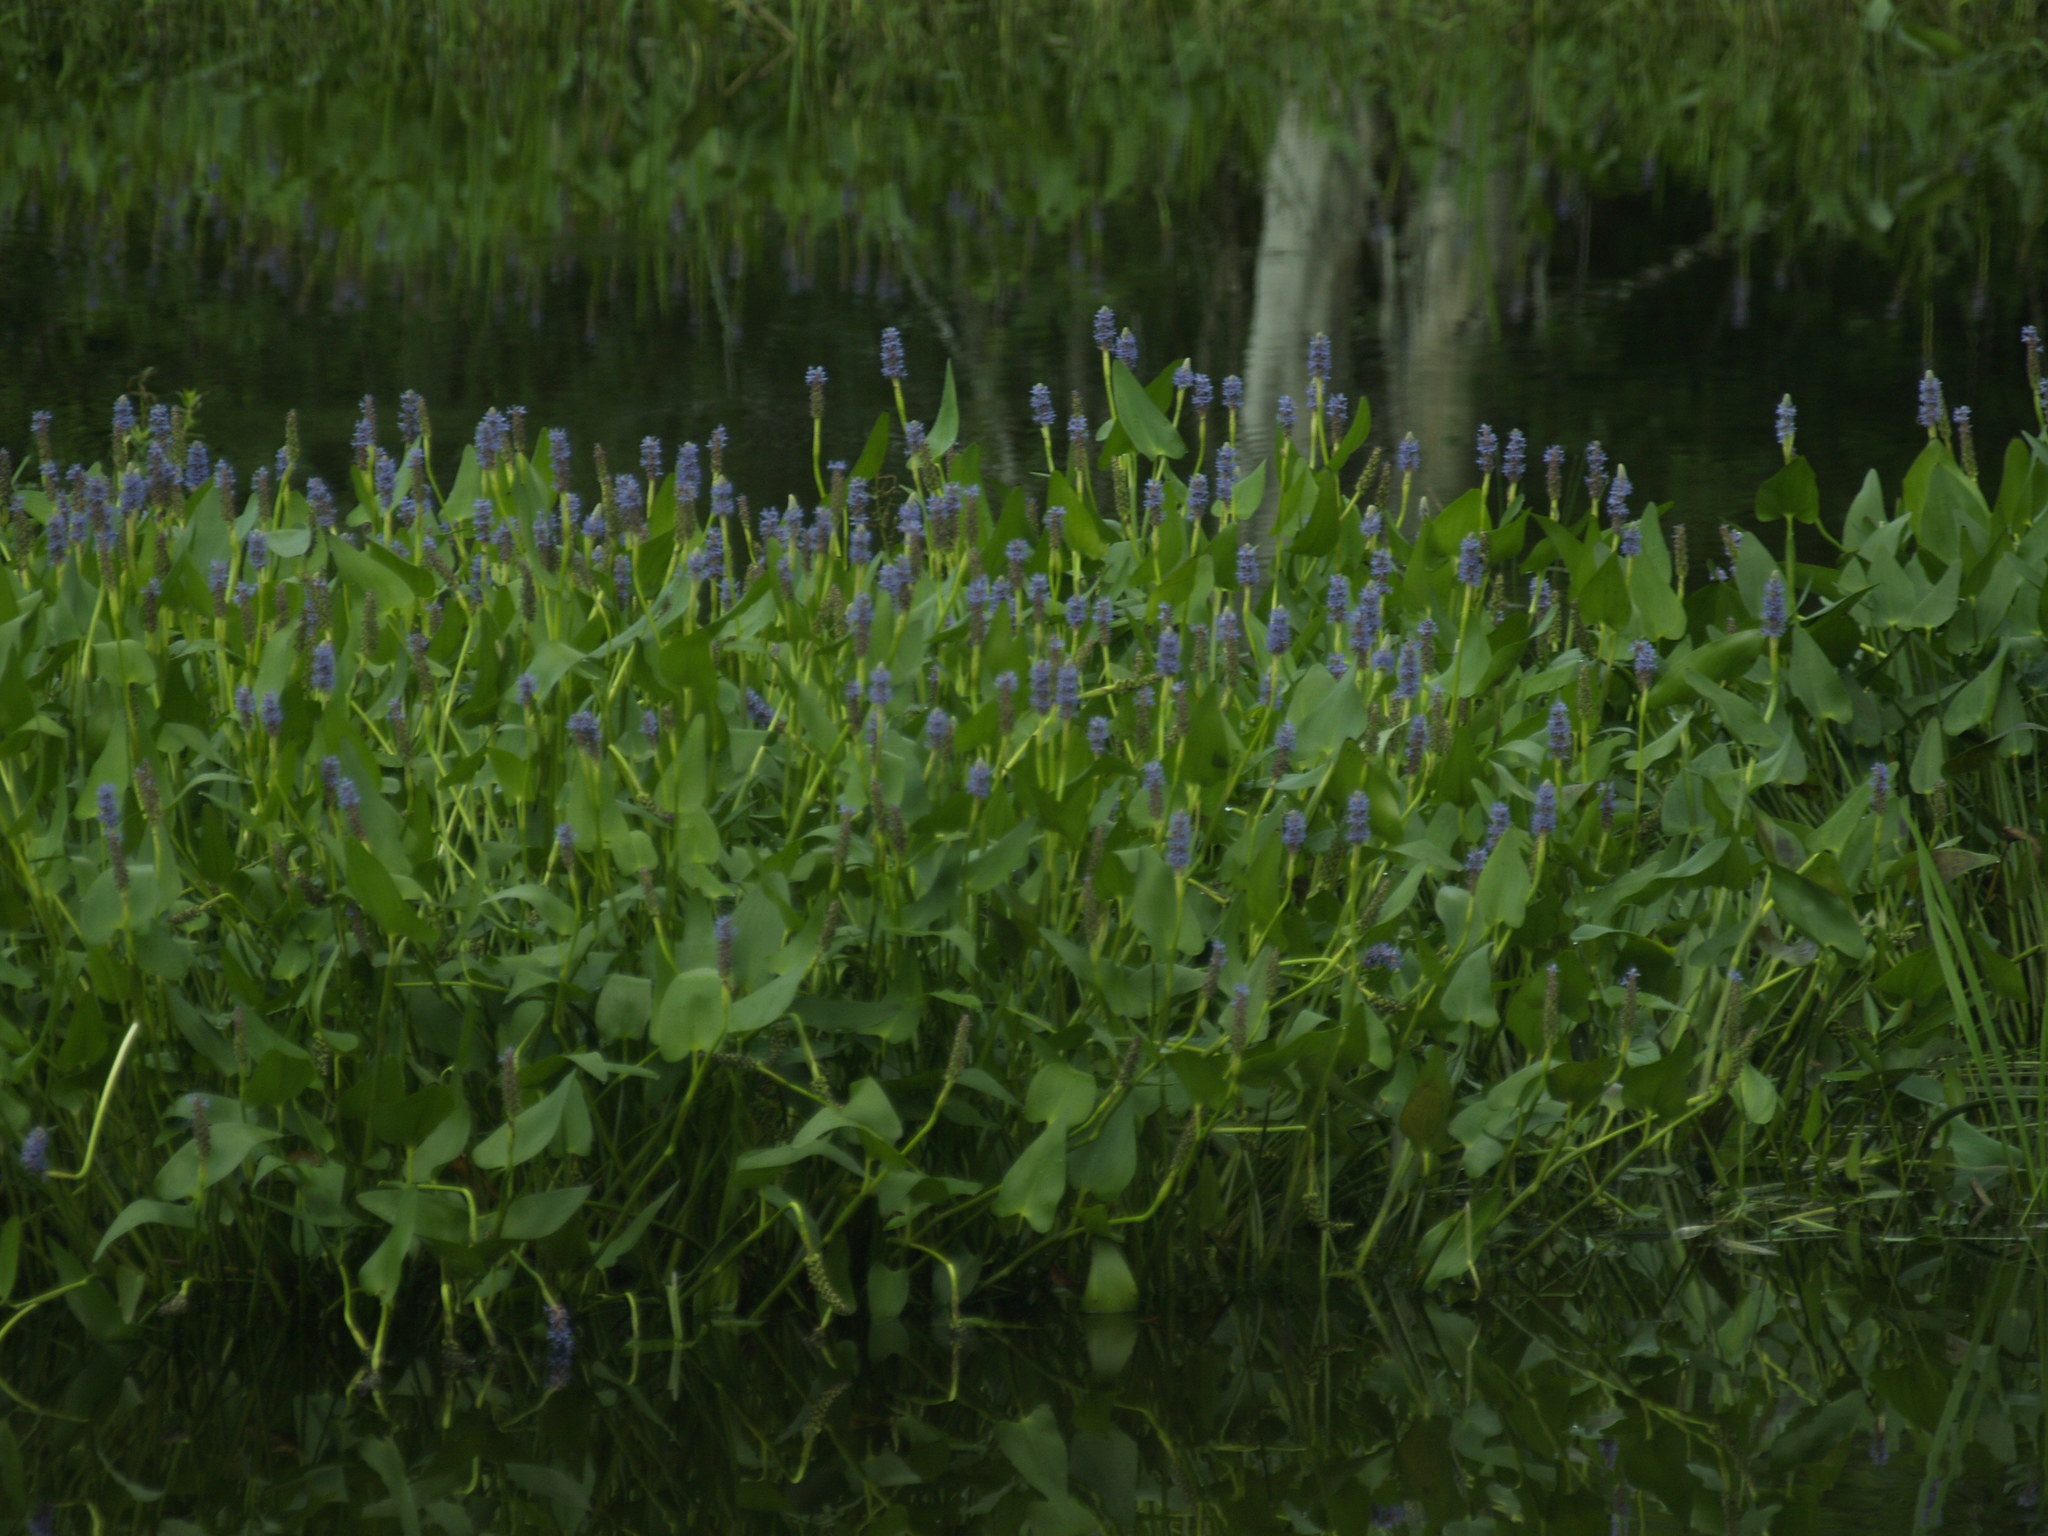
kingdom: Plantae
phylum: Tracheophyta
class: Liliopsida
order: Commelinales
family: Pontederiaceae
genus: Pontederia
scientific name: Pontederia cordata
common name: Pickerelweed
